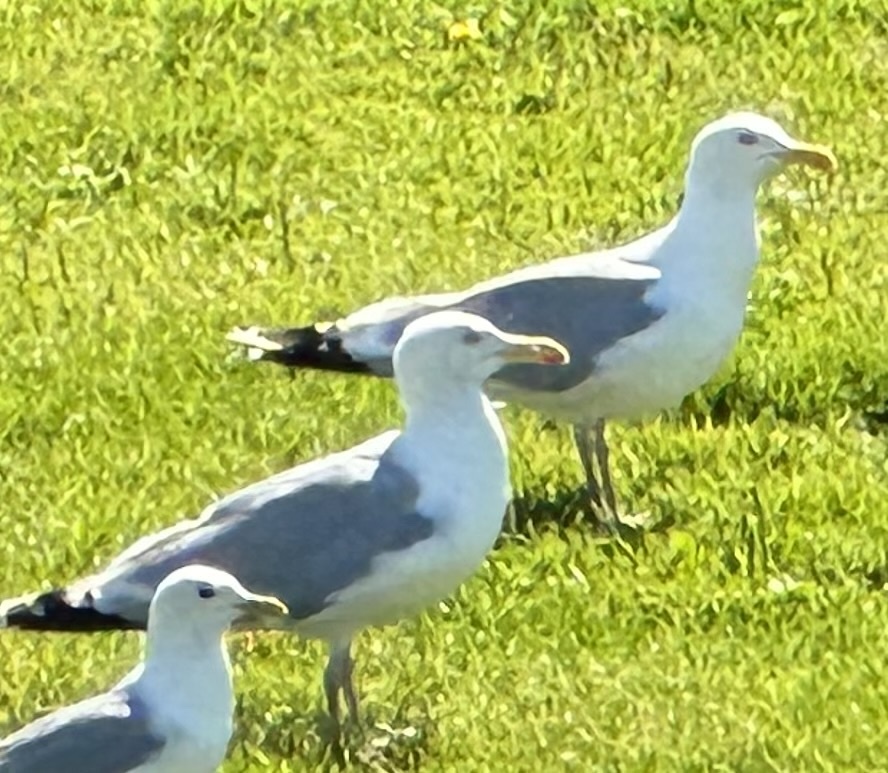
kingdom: Animalia
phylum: Chordata
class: Aves
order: Charadriiformes
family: Laridae
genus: Larus
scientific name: Larus argentatus
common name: Herring gull
